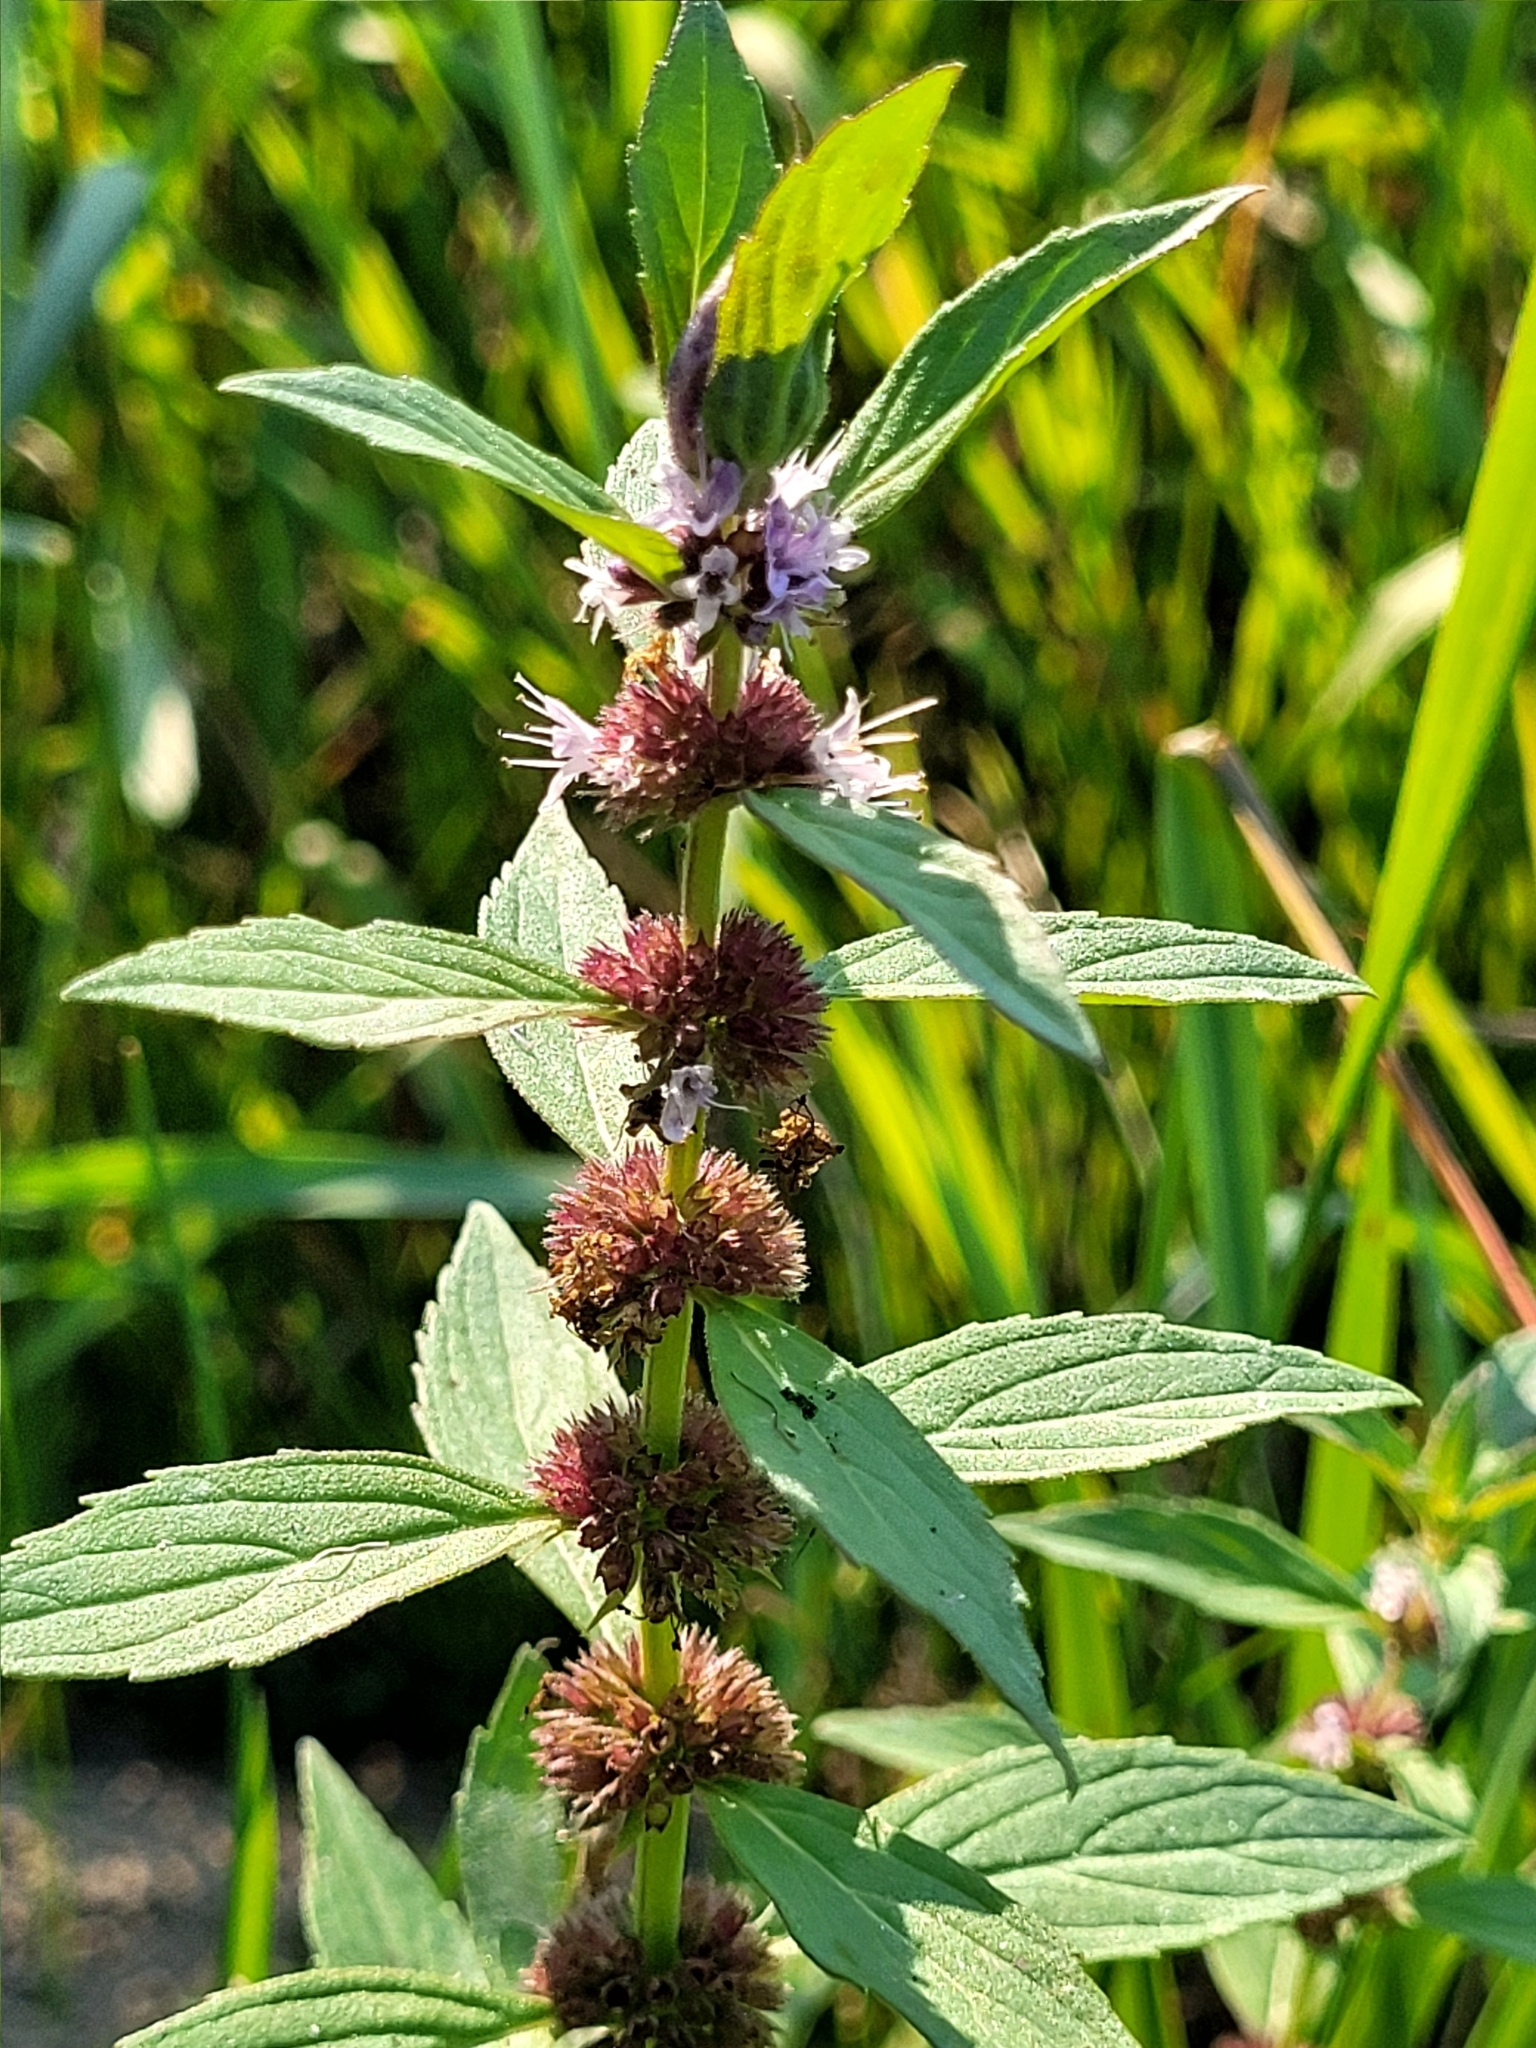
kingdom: Plantae
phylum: Tracheophyta
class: Magnoliopsida
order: Lamiales
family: Lamiaceae
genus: Mentha
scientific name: Mentha canadensis
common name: American corn mint
